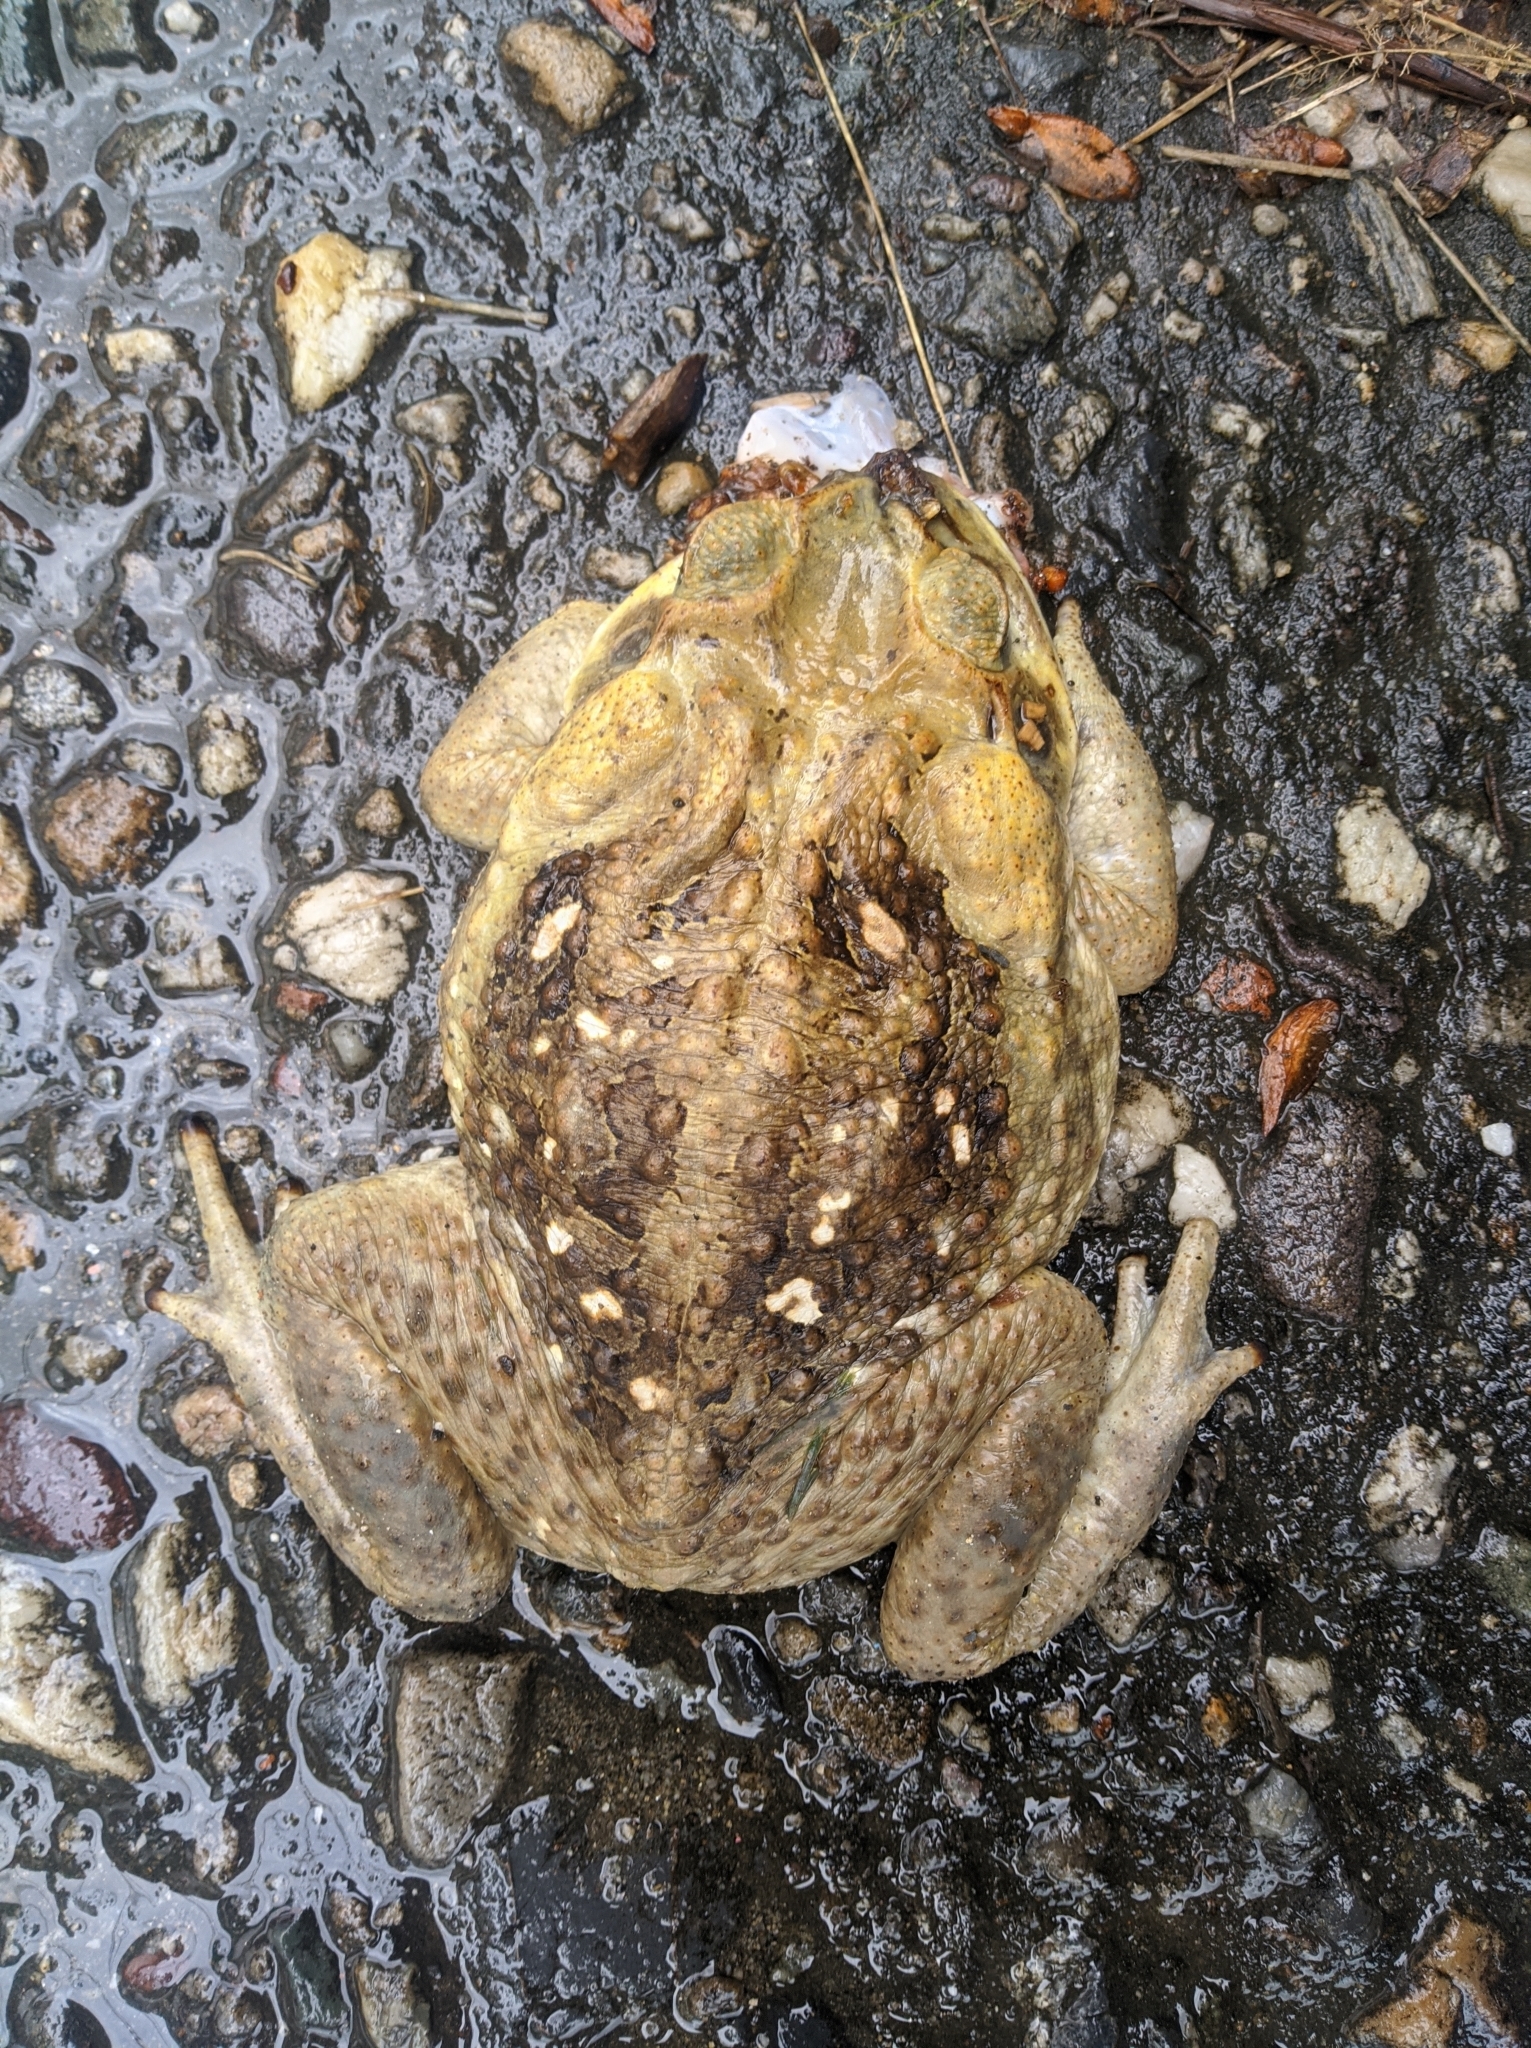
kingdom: Animalia
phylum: Chordata
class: Amphibia
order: Anura
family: Bufonidae
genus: Rhinella
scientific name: Rhinella horribilis
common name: Mesoamerican cane toad
